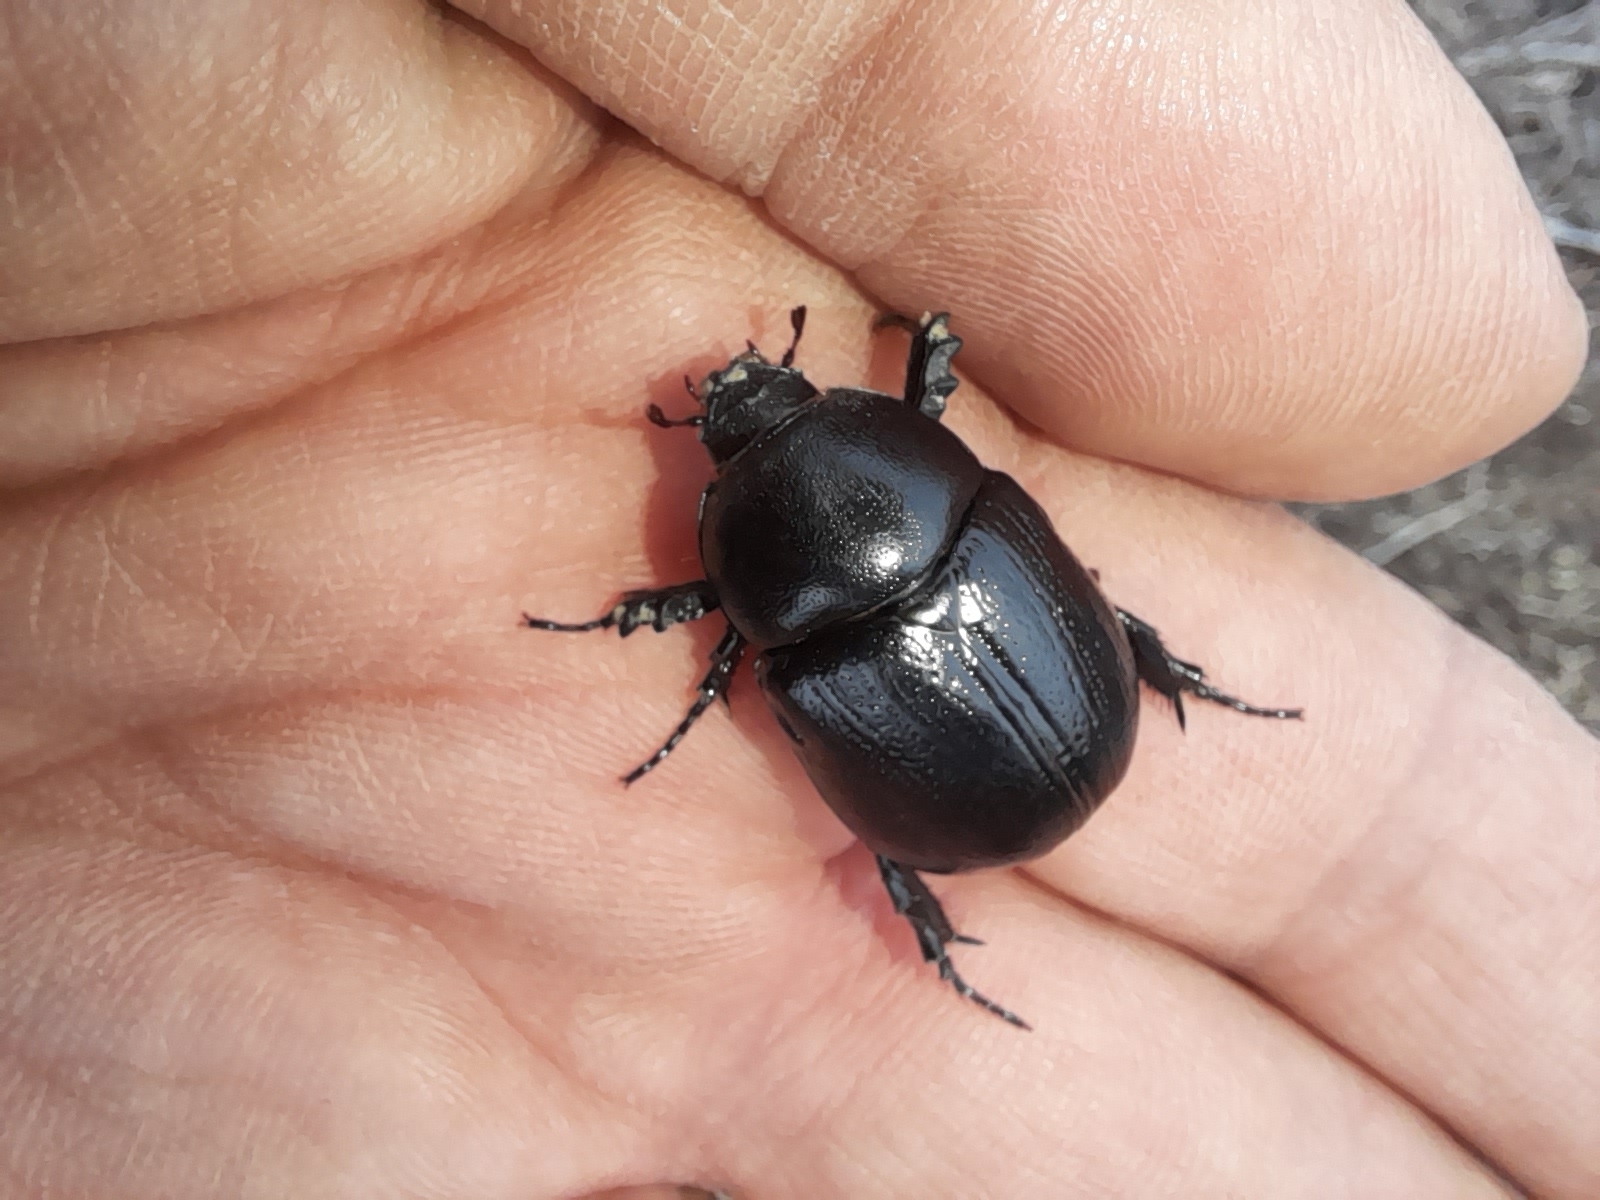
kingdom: Animalia
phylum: Arthropoda
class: Insecta
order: Coleoptera
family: Scarabaeidae
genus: Pentodon
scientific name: Pentodon bidens
